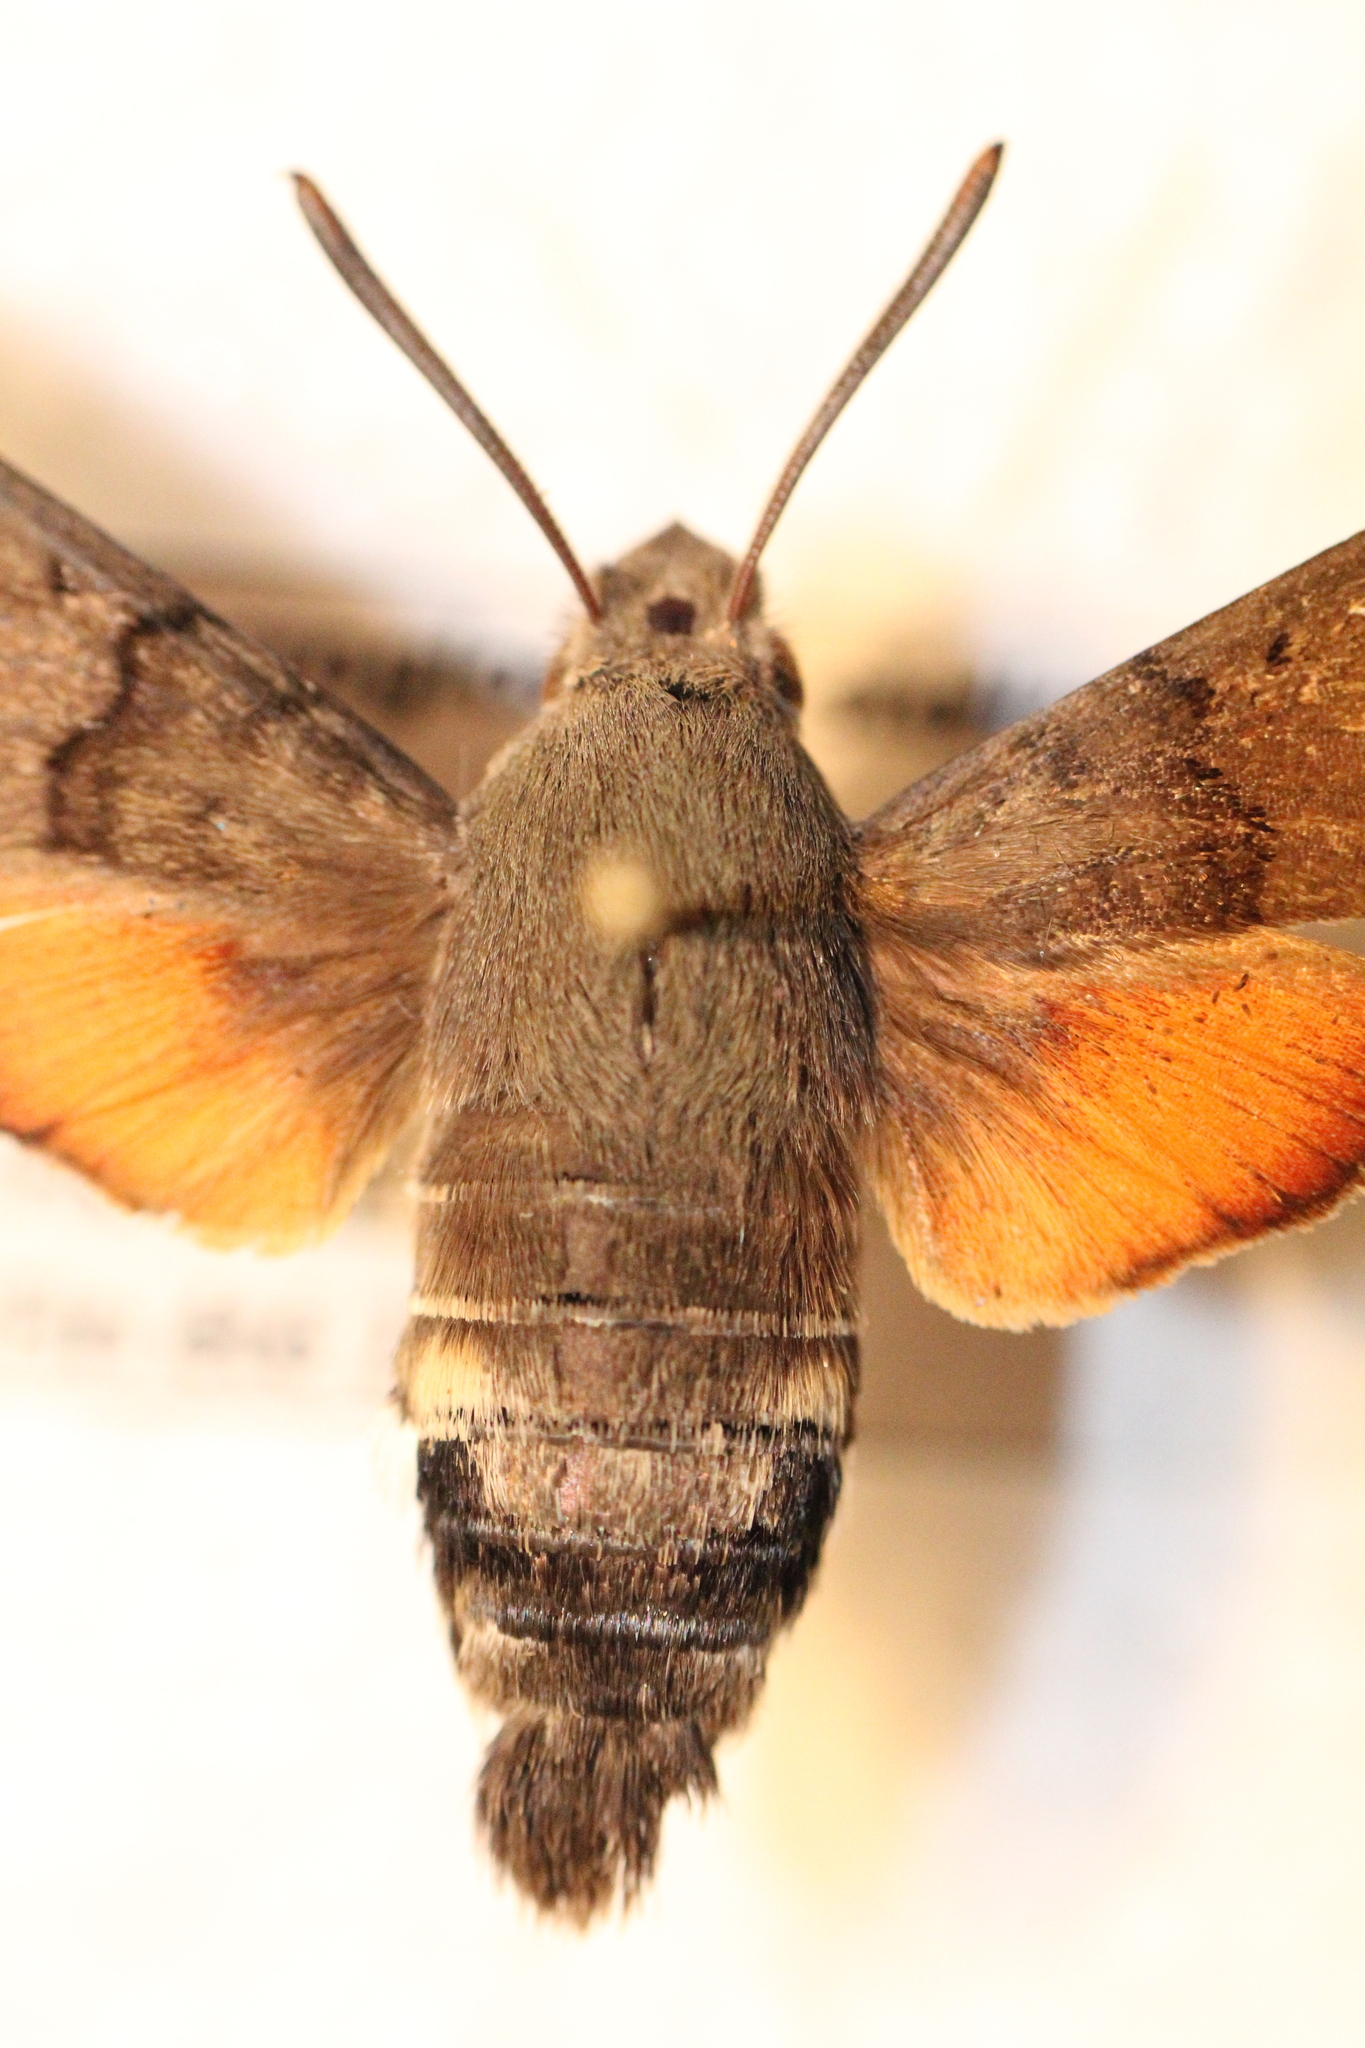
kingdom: Animalia
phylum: Arthropoda
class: Insecta
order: Lepidoptera
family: Sphingidae
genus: Macroglossum
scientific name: Macroglossum stellatarum
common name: Humming-bird hawk-moth
